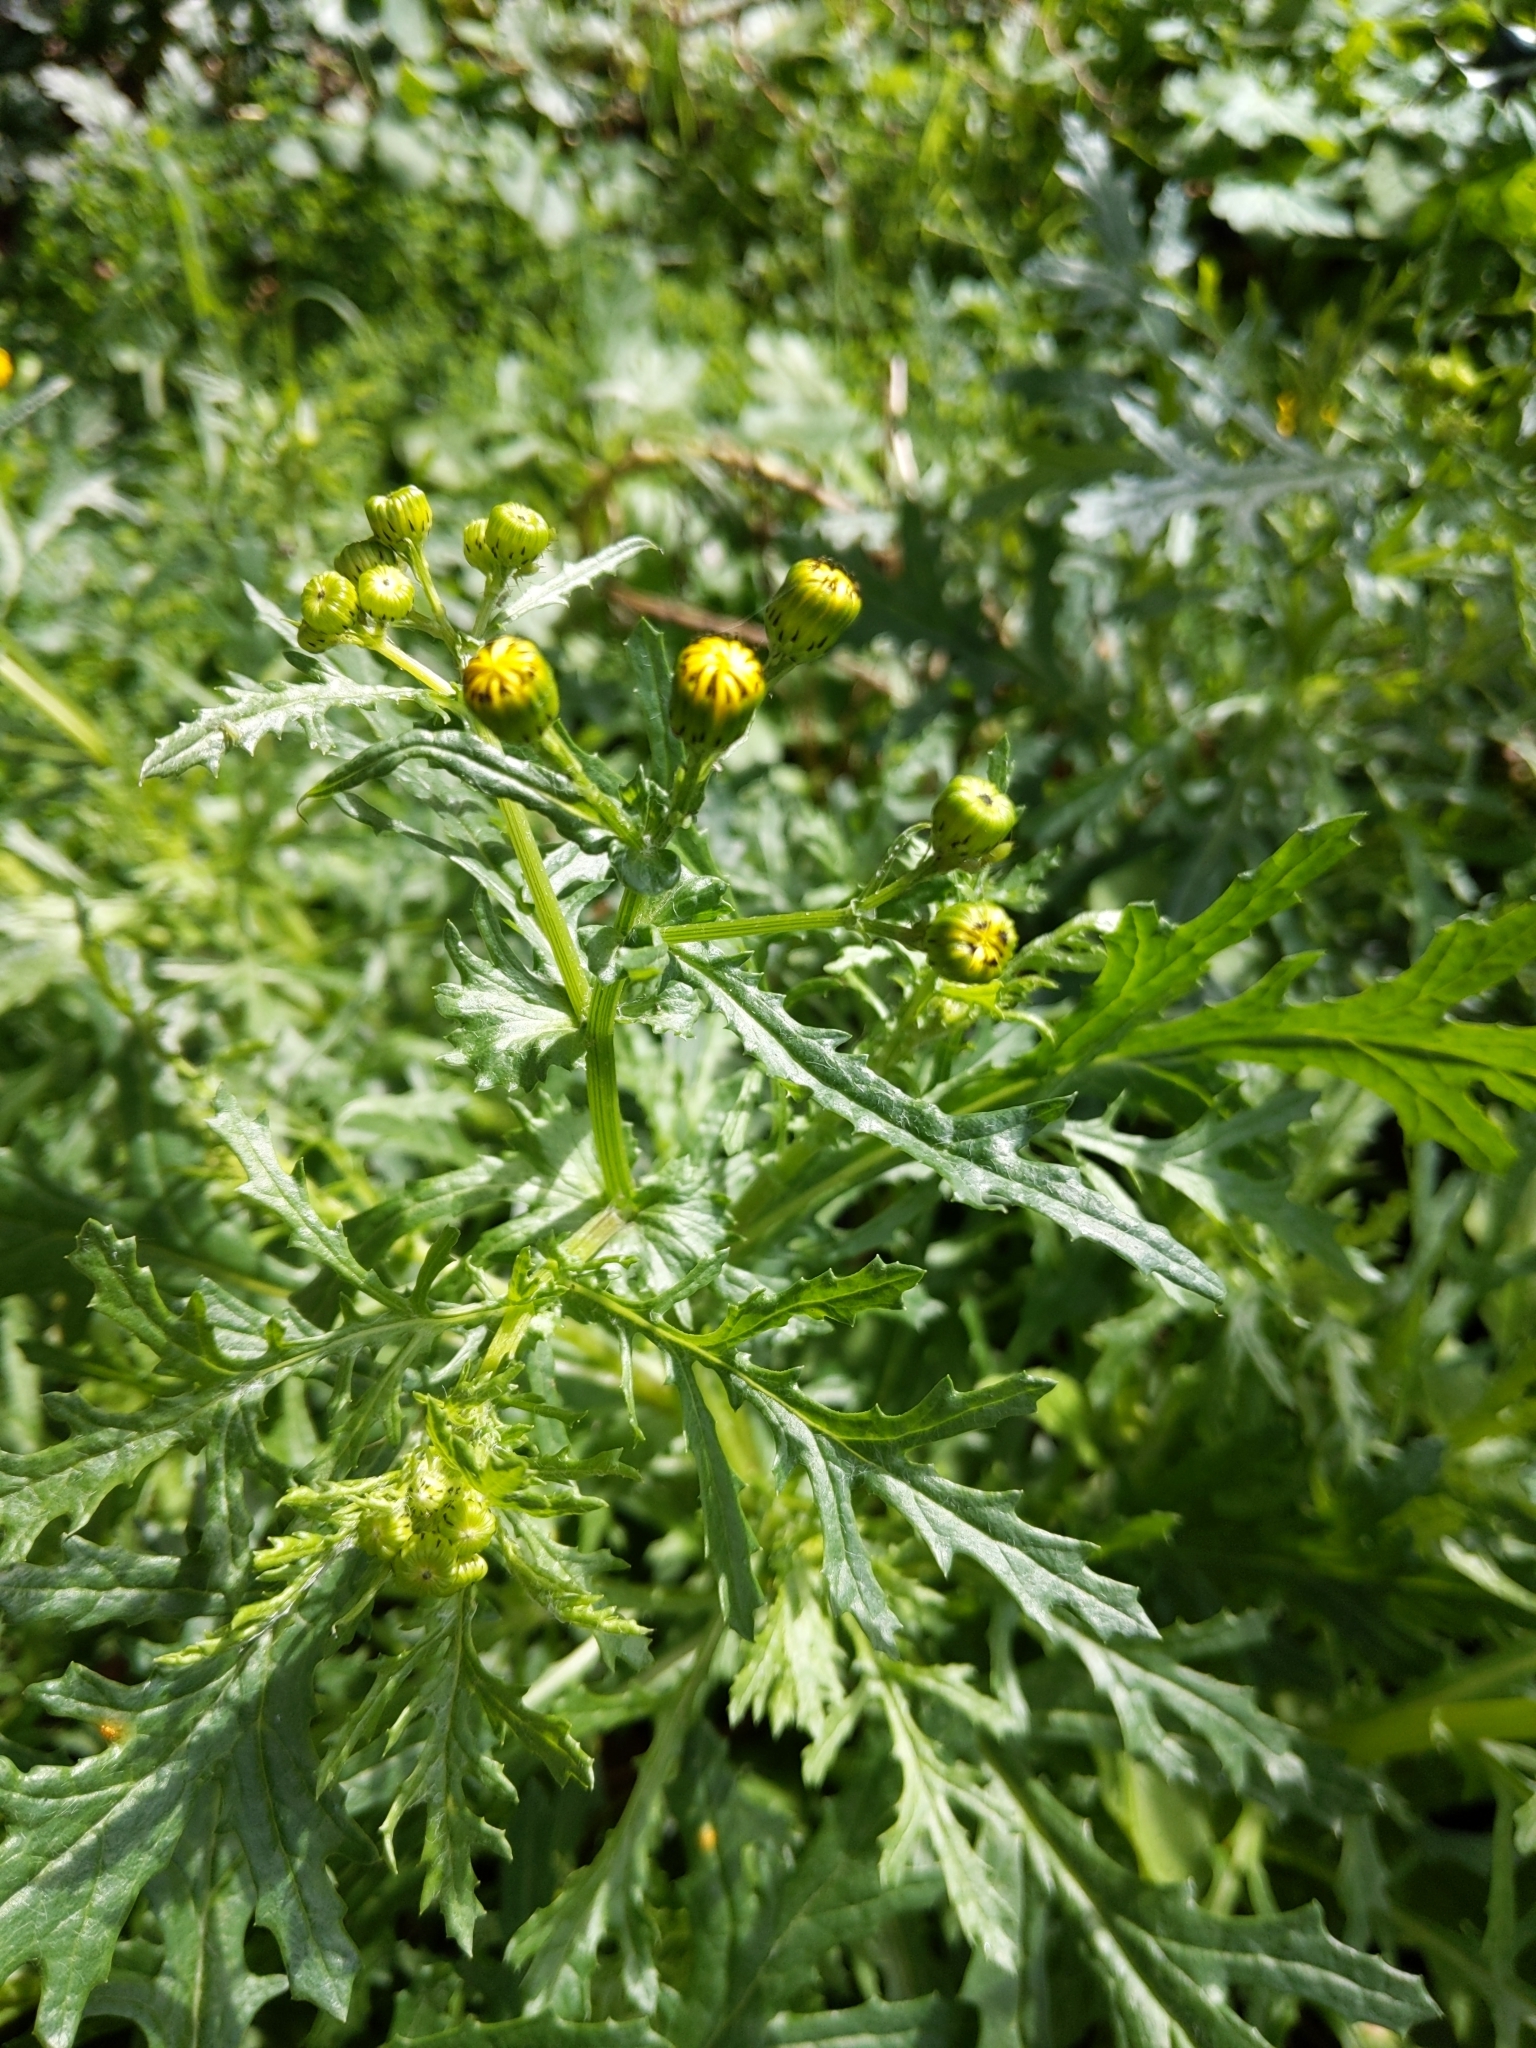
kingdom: Plantae
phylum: Tracheophyta
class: Magnoliopsida
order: Asterales
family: Asteraceae
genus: Senecio
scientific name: Senecio squalidus
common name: Oxford ragwort
